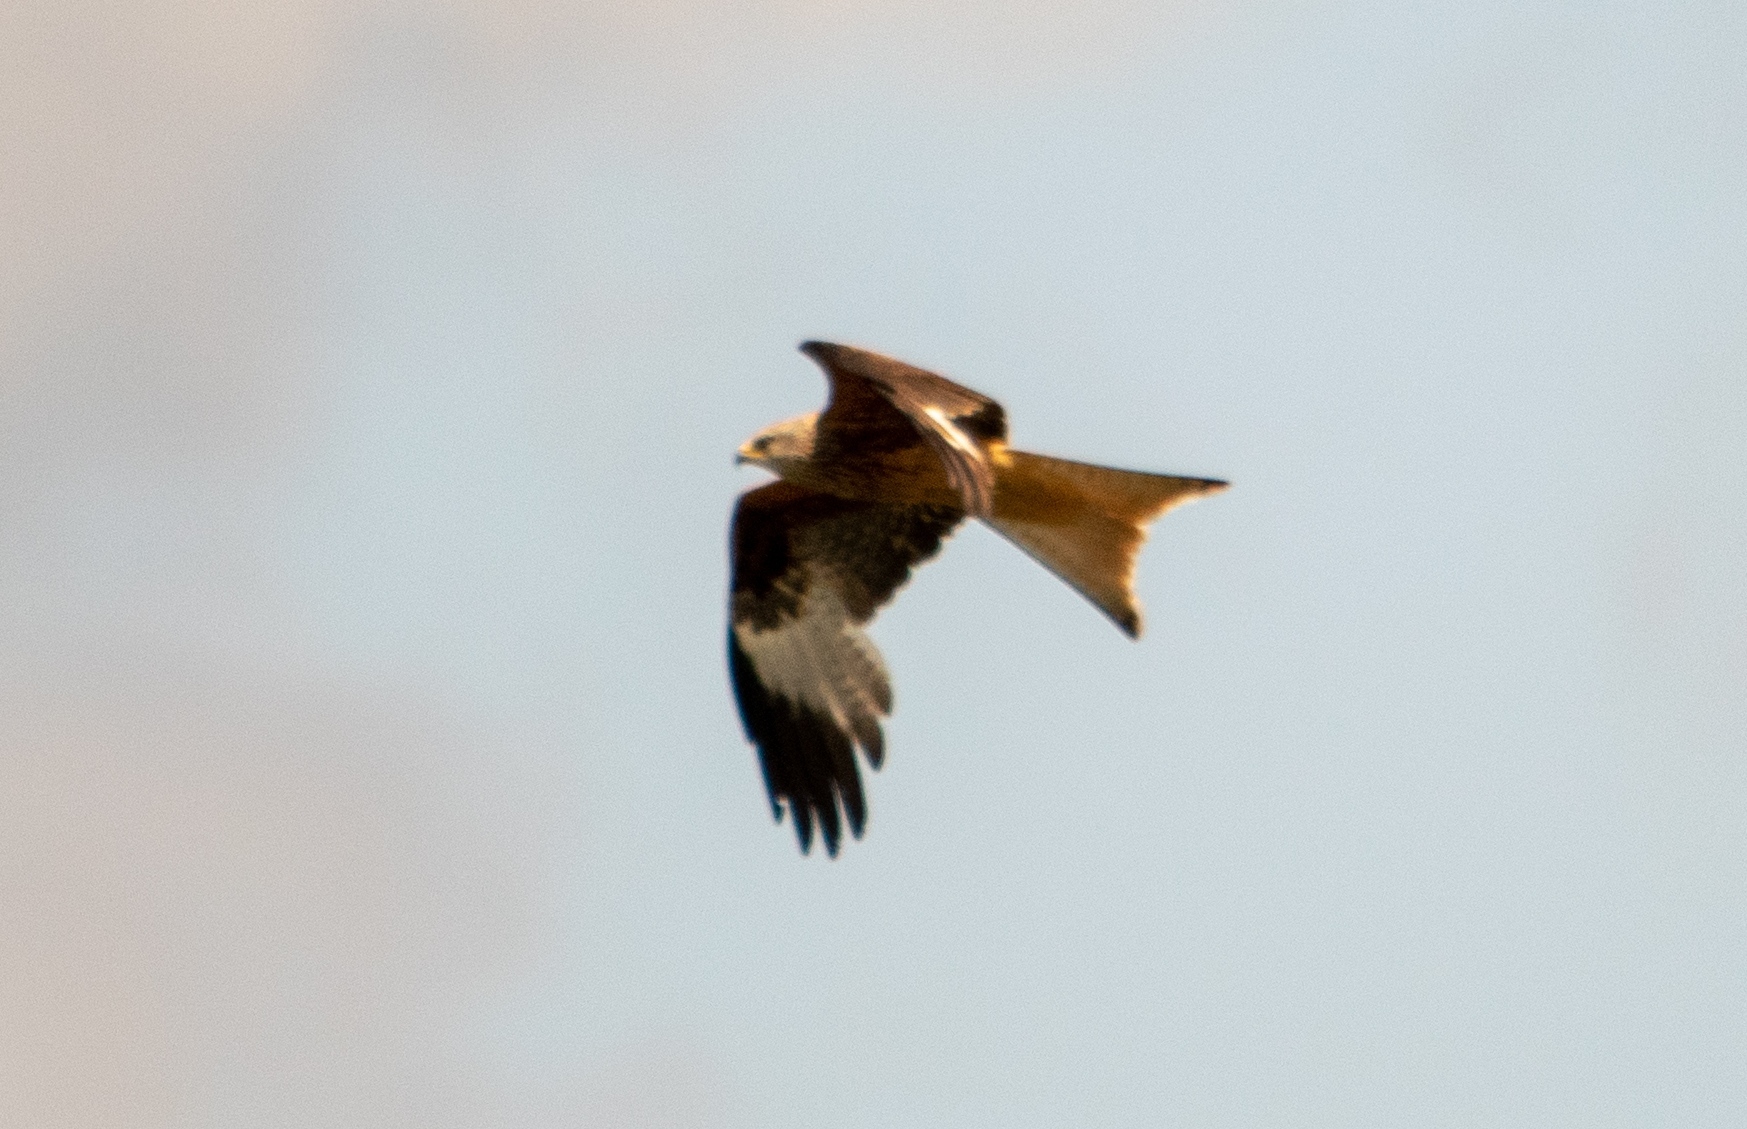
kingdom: Animalia
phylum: Chordata
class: Aves
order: Accipitriformes
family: Accipitridae
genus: Milvus
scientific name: Milvus milvus
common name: Red kite
